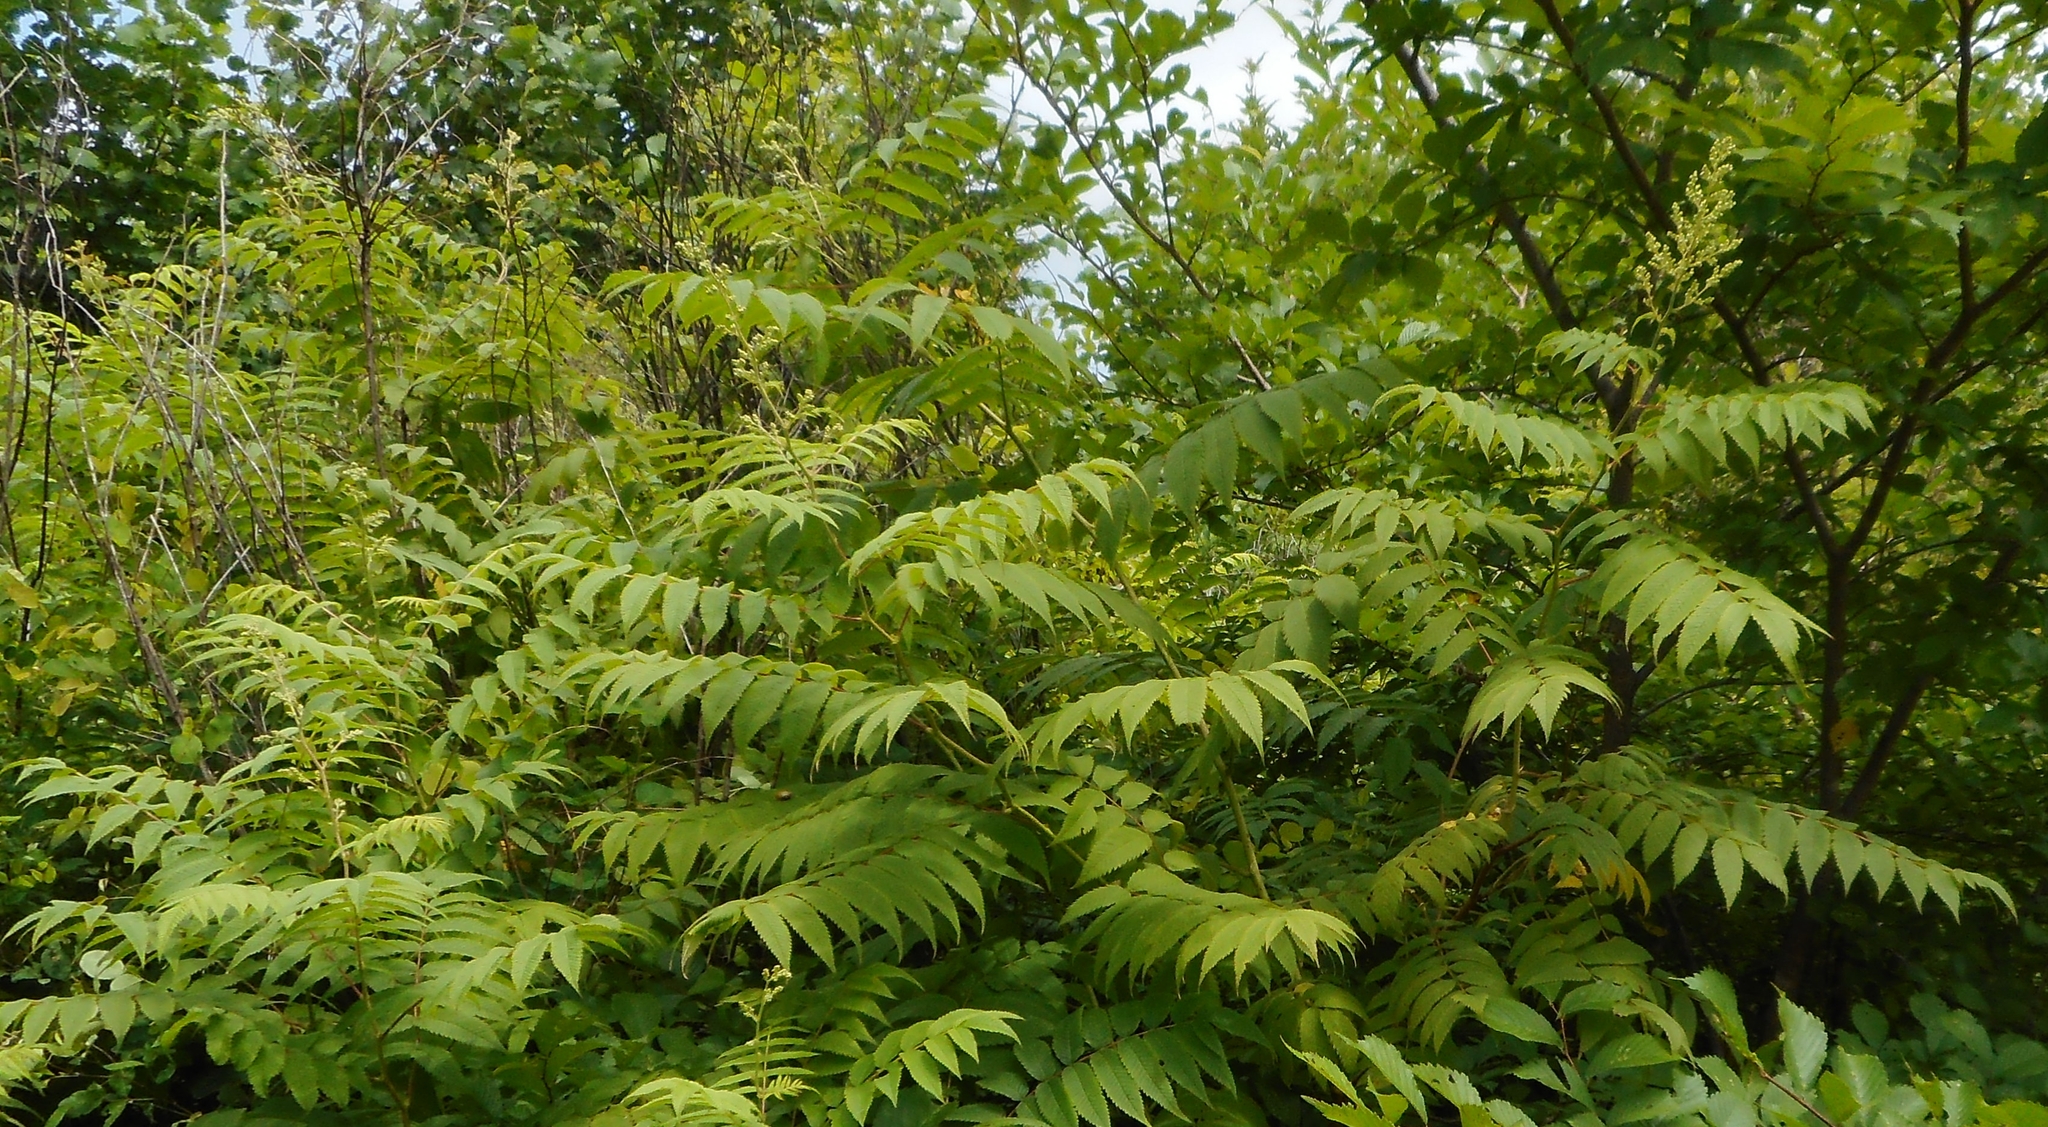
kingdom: Plantae
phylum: Tracheophyta
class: Magnoliopsida
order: Rosales
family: Rosaceae
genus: Sorbaria
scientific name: Sorbaria sorbifolia
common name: False spiraea
